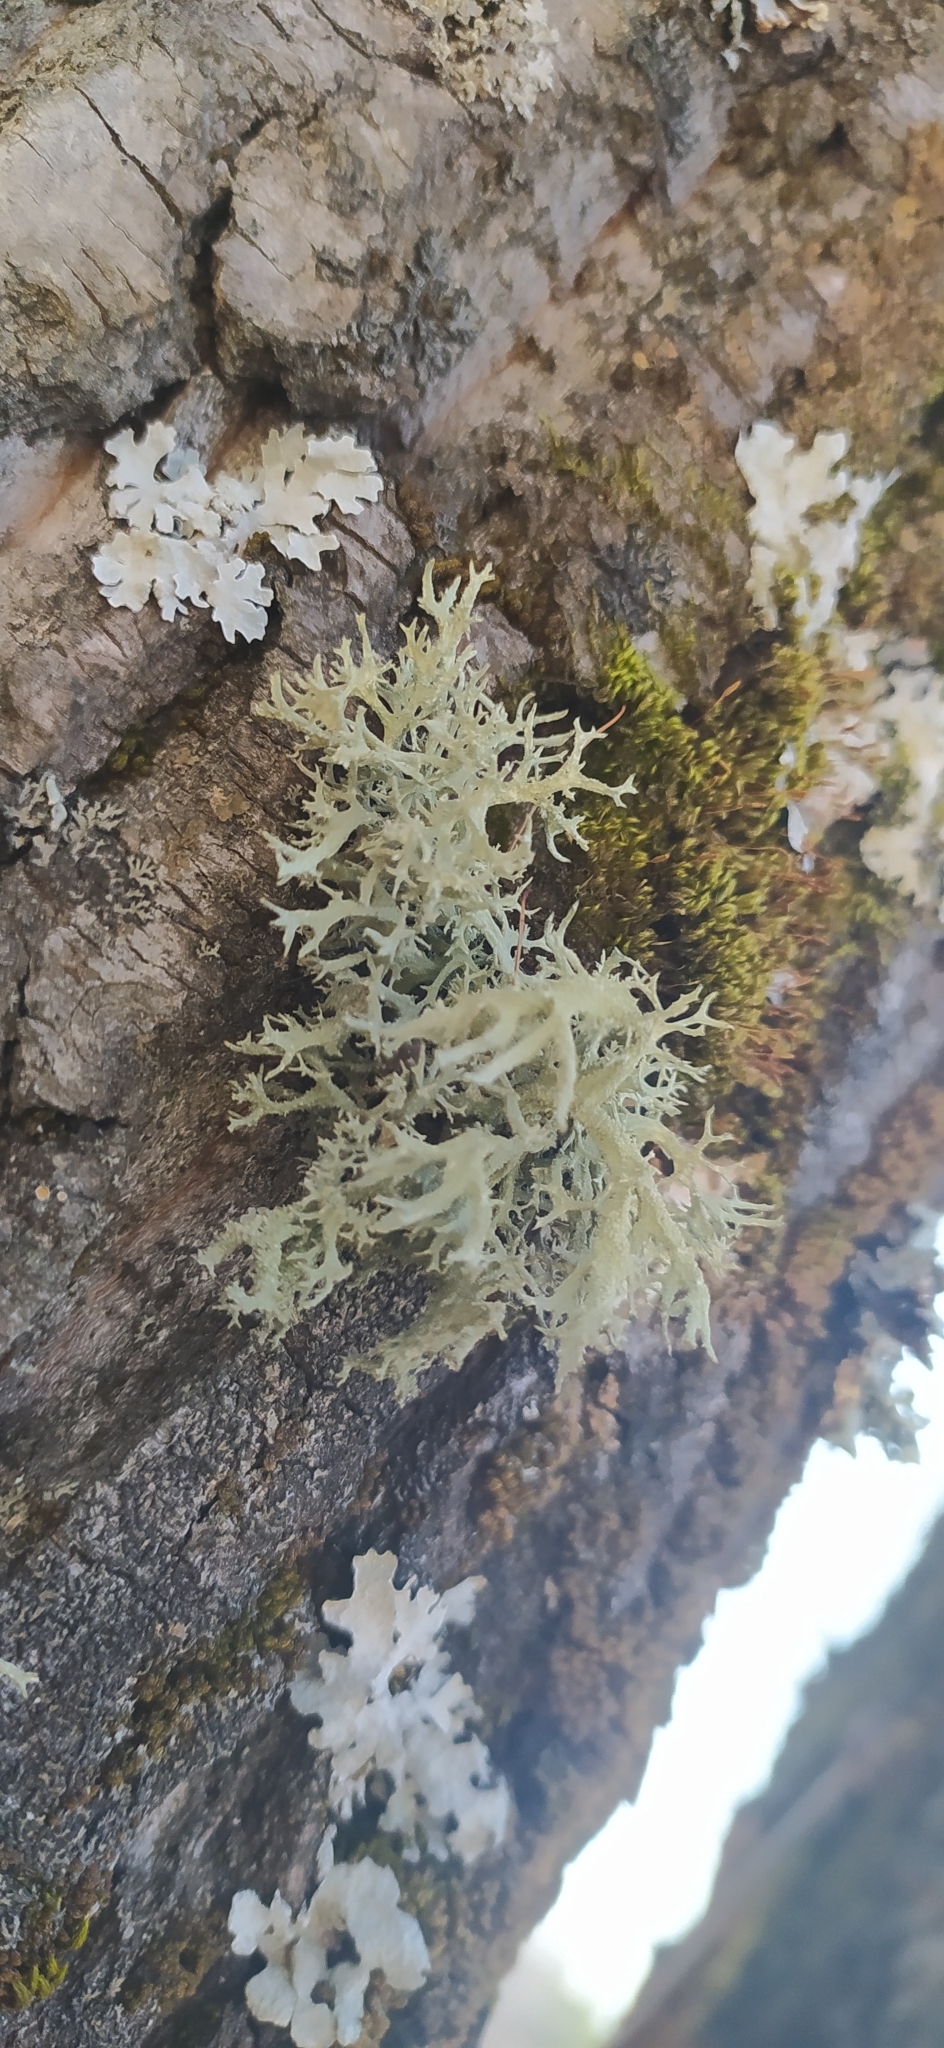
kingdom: Fungi
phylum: Ascomycota
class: Lecanoromycetes
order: Lecanorales
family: Parmeliaceae
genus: Evernia
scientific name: Evernia prunastri
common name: Oak moss
